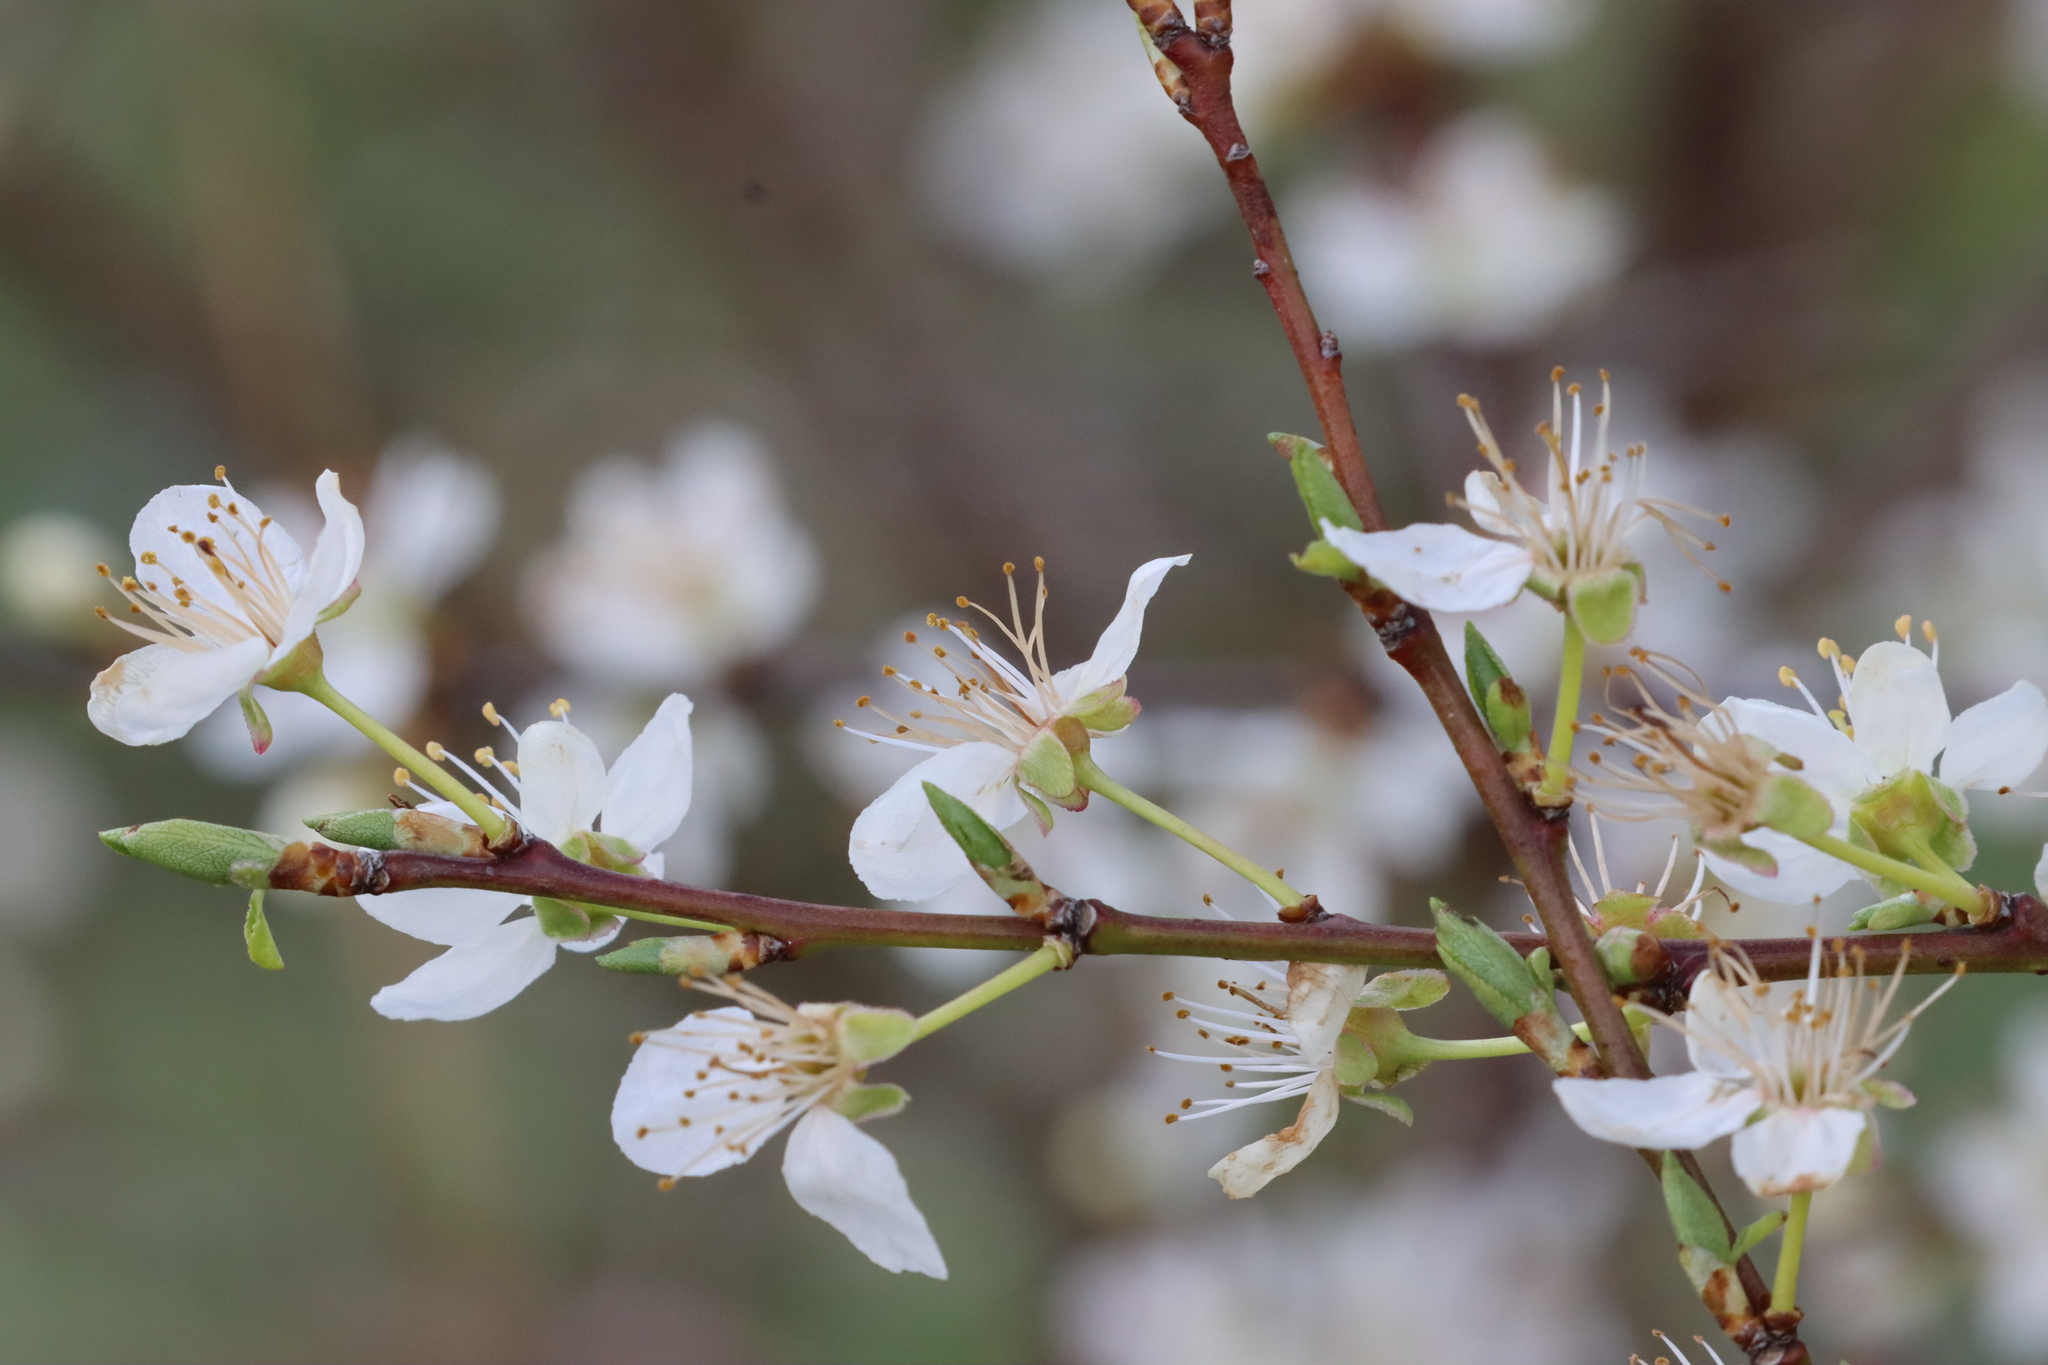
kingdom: Plantae
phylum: Tracheophyta
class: Magnoliopsida
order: Rosales
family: Rosaceae
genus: Prunus
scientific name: Prunus cerasifera
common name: Cherry plum
